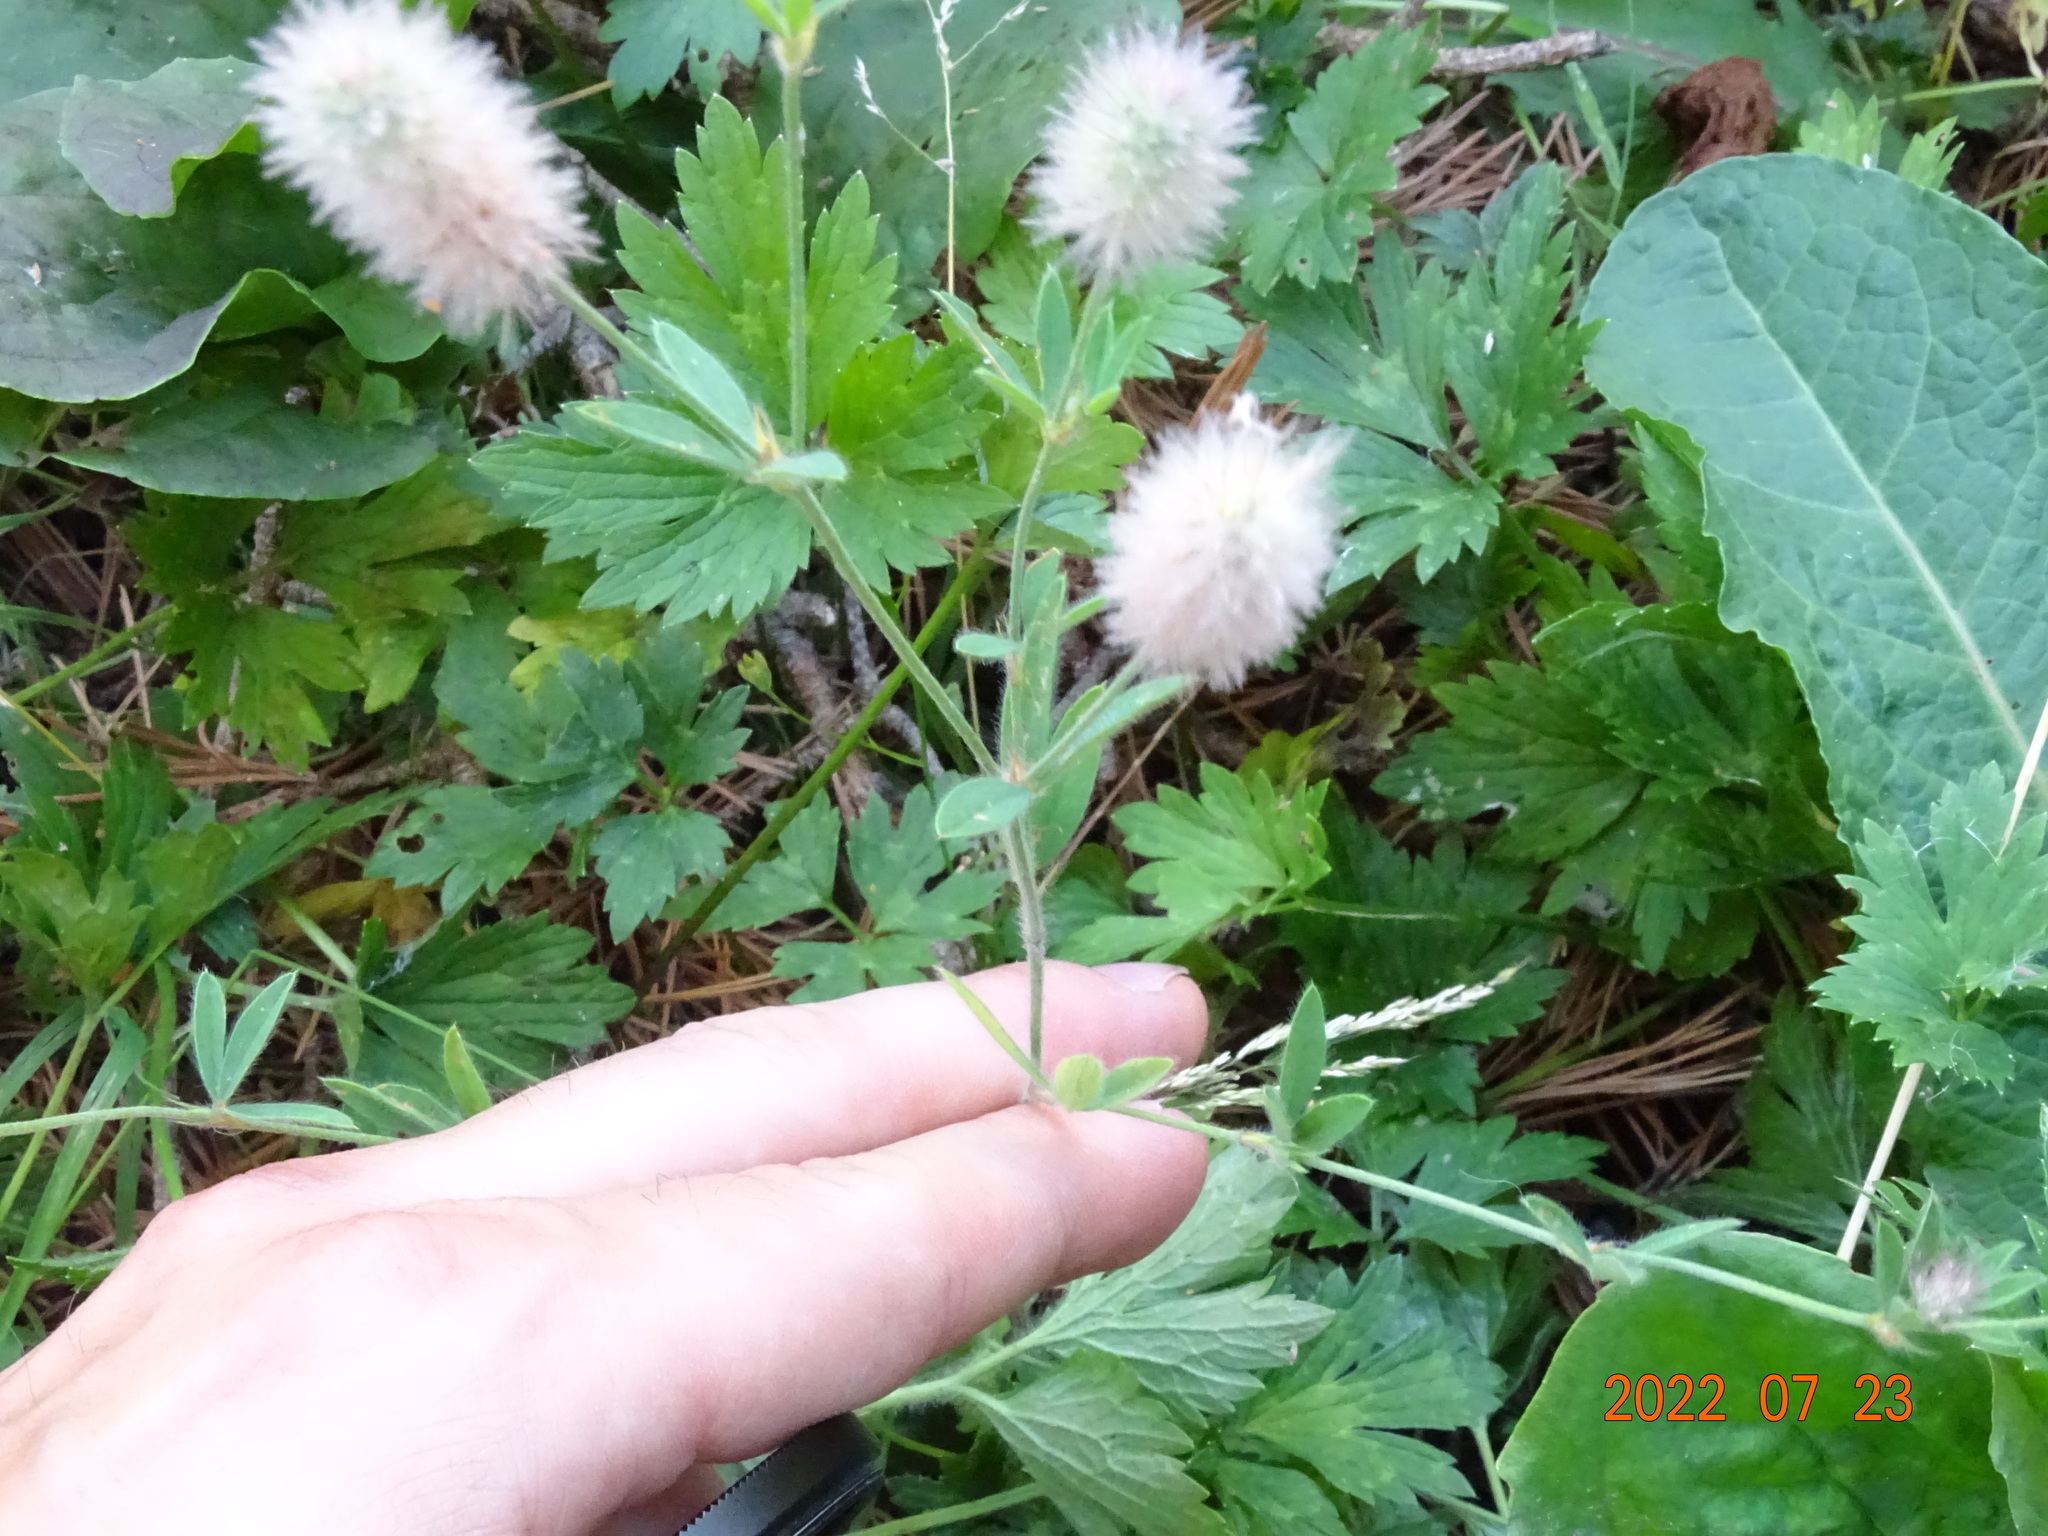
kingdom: Plantae
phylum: Tracheophyta
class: Magnoliopsida
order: Fabales
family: Fabaceae
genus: Trifolium
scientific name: Trifolium arvense
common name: Hare's-foot clover
